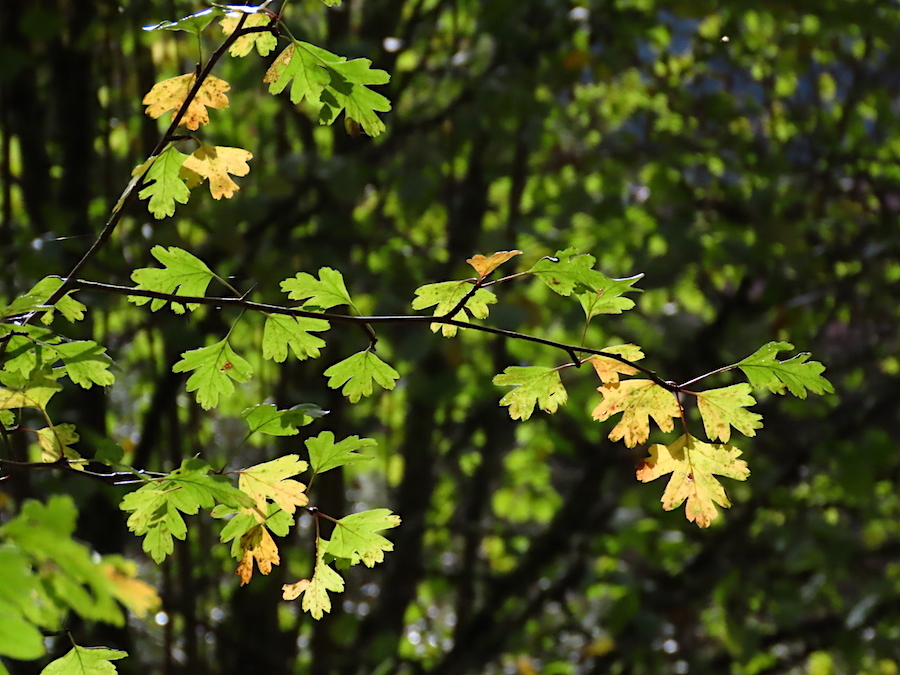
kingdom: Plantae
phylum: Tracheophyta
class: Magnoliopsida
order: Rosales
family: Rosaceae
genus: Crataegus
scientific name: Crataegus monogyna
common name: Hawthorn
